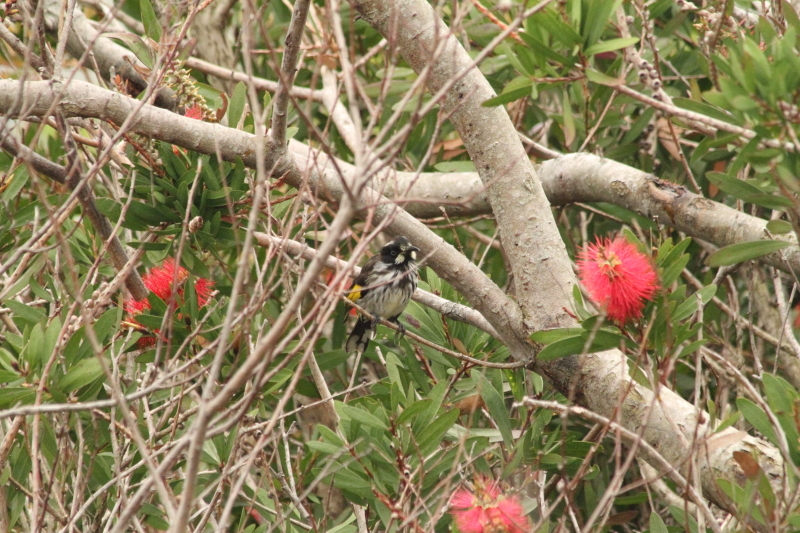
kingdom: Animalia
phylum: Chordata
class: Aves
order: Passeriformes
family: Meliphagidae
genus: Phylidonyris
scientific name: Phylidonyris novaehollandiae
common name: New holland honeyeater
